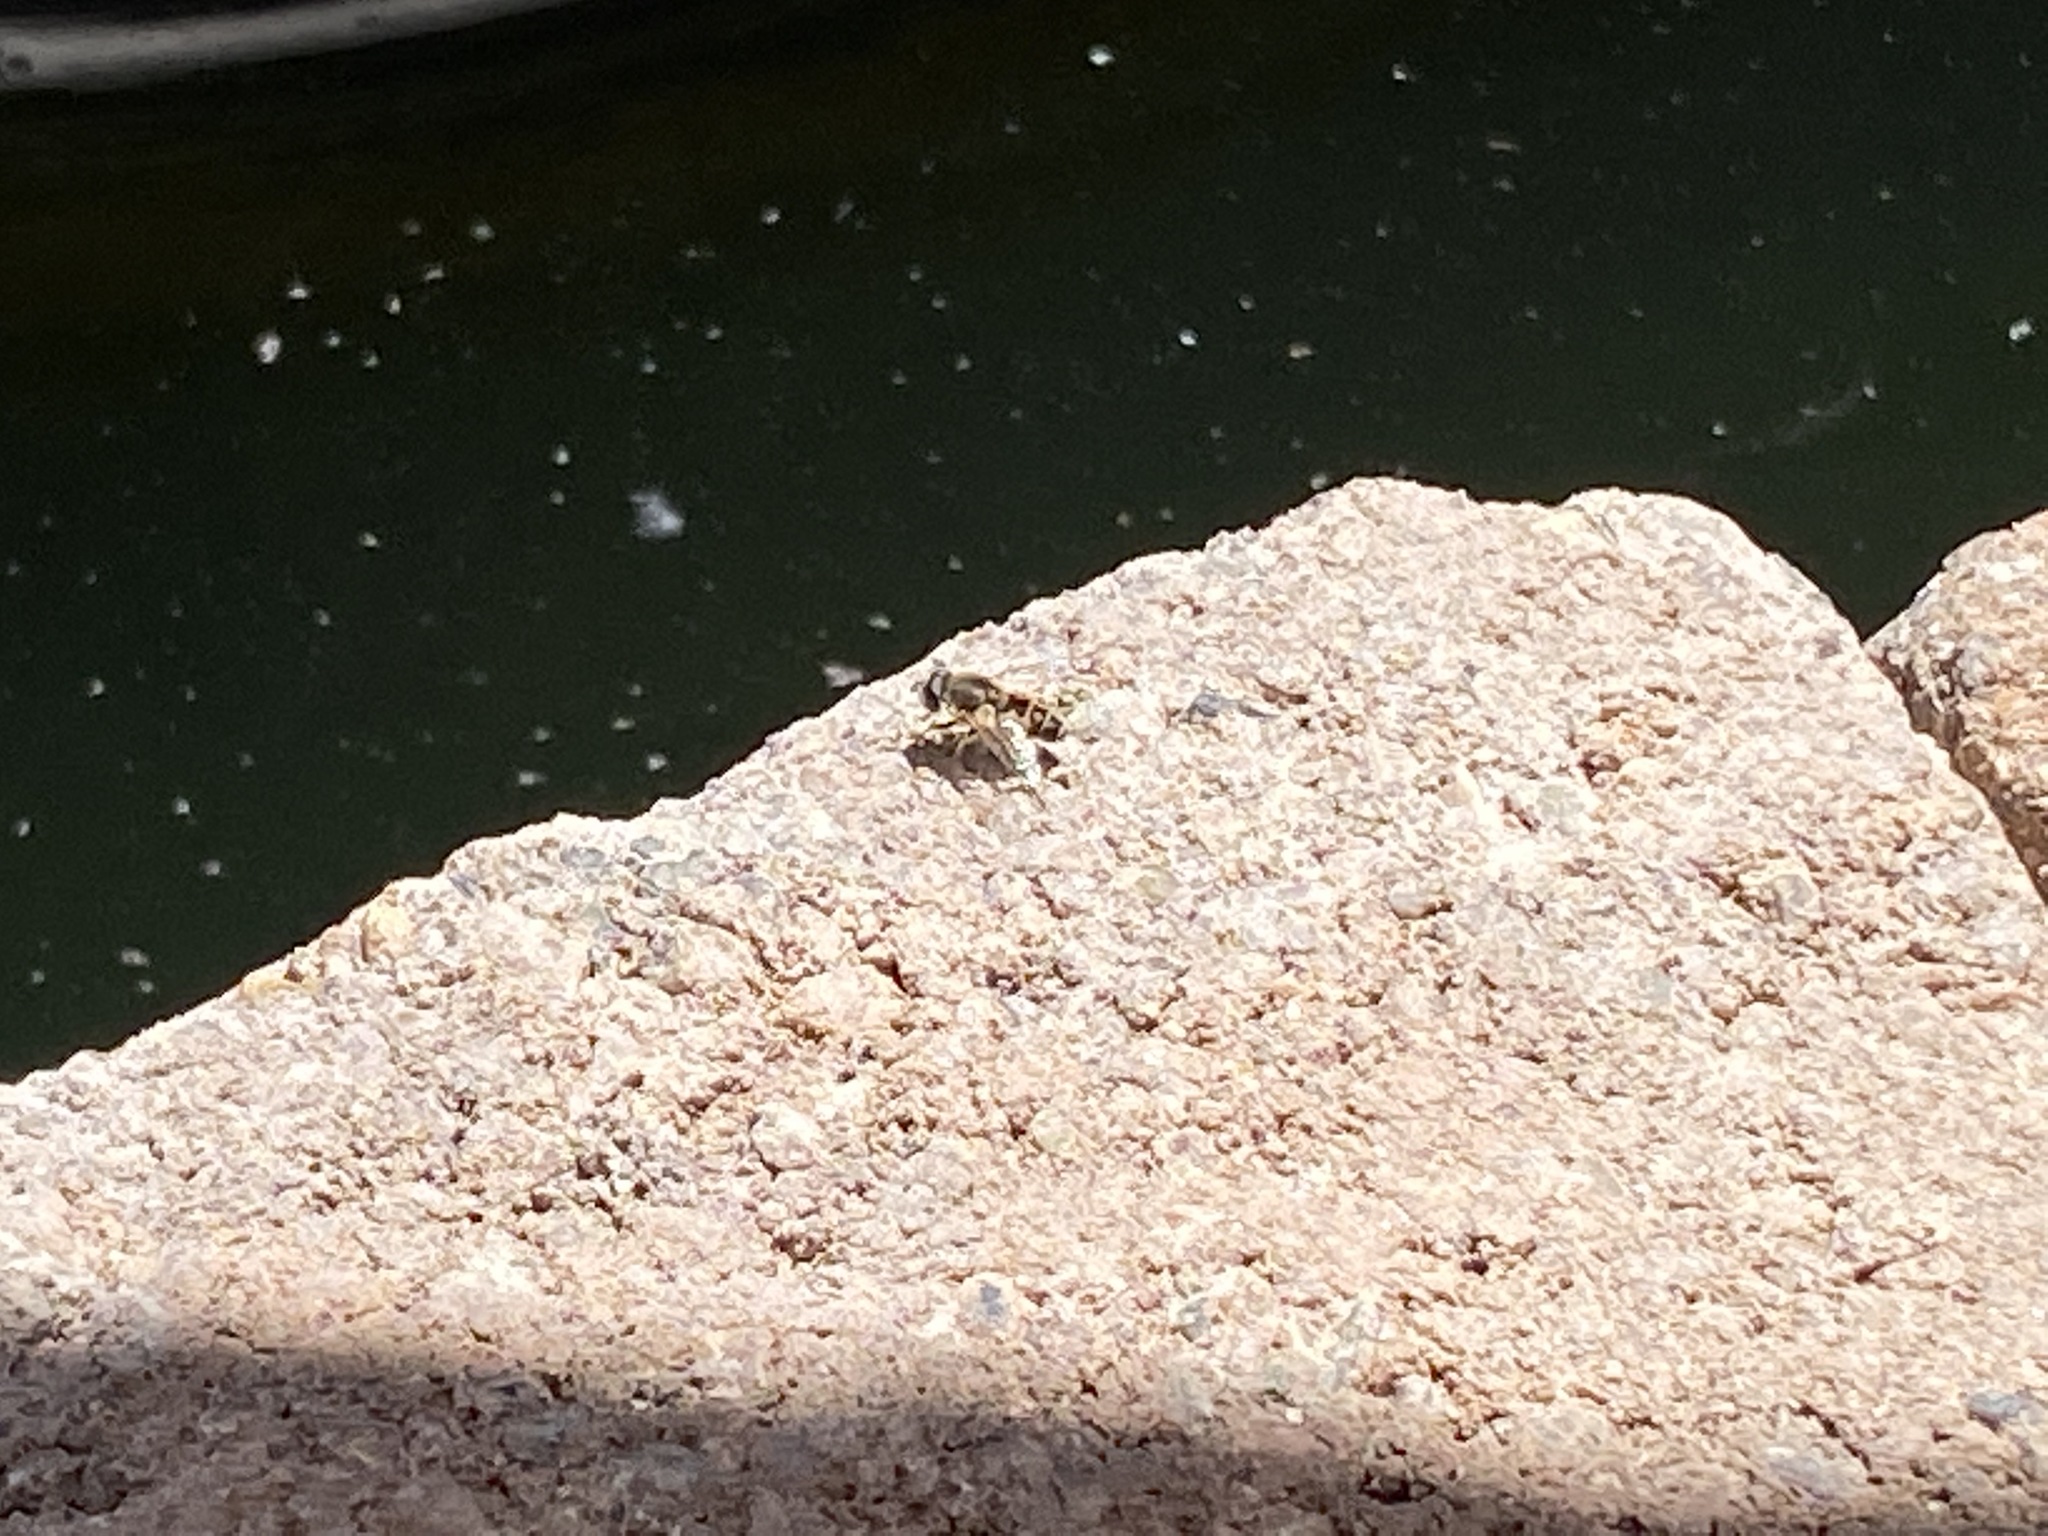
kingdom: Animalia
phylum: Arthropoda
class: Insecta
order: Diptera
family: Syrphidae
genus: Eristalis
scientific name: Eristalis arbustorum
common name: Hover fly
